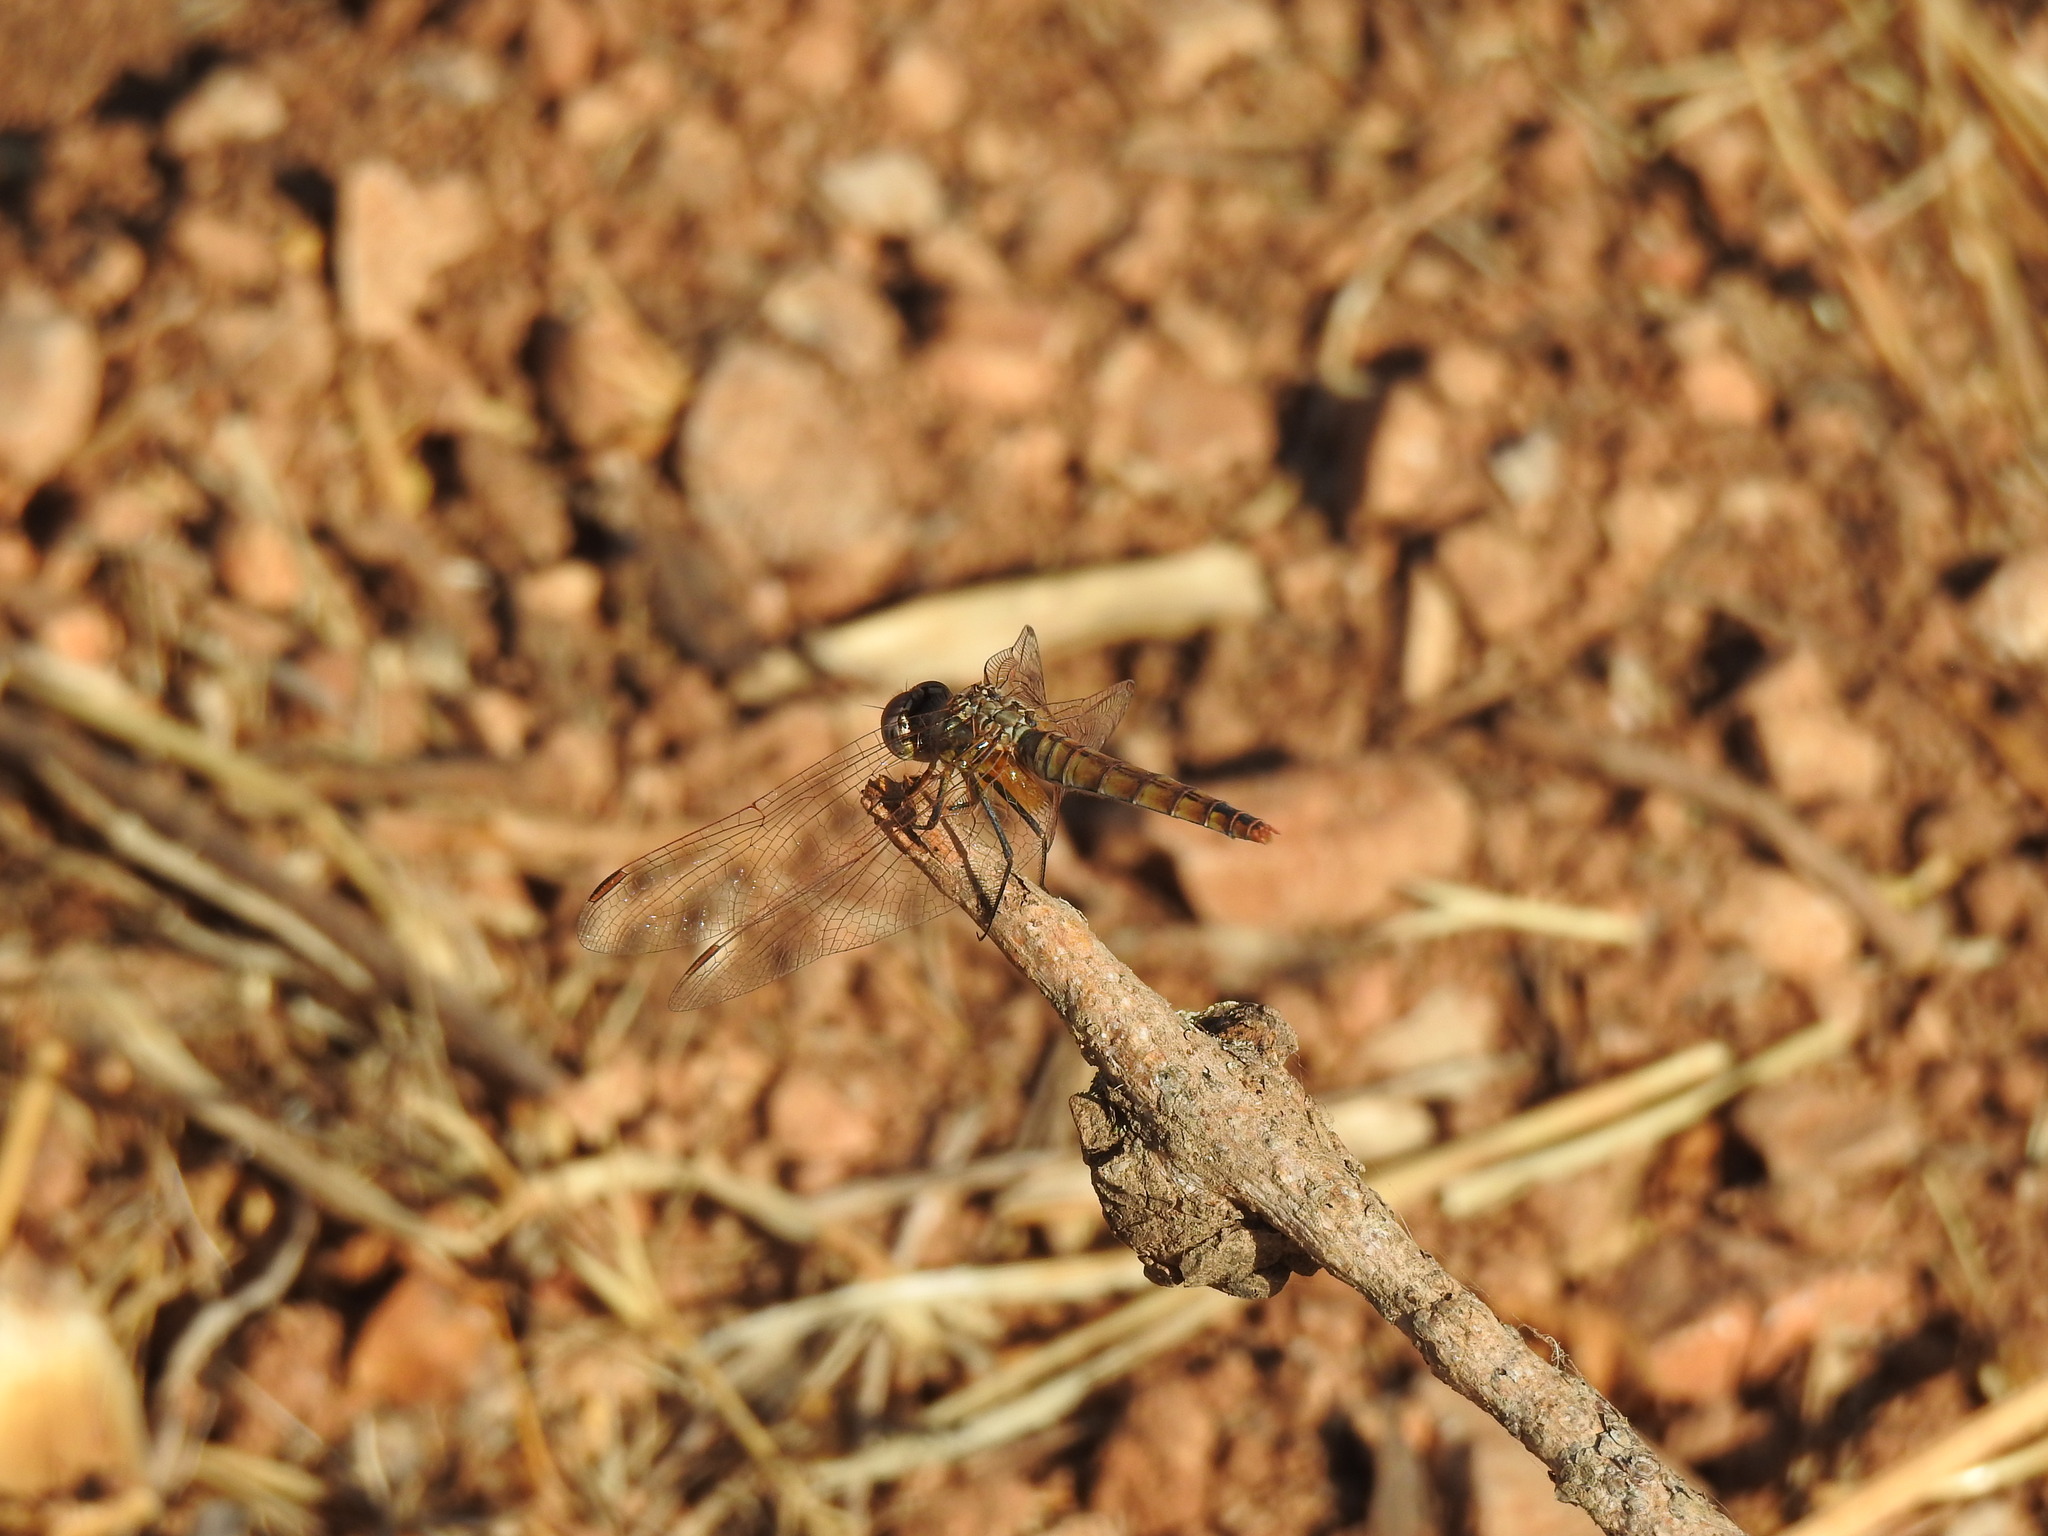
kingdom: Animalia
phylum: Arthropoda
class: Insecta
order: Odonata
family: Libellulidae
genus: Trithemis
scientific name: Trithemis annulata
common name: Violet dropwing
